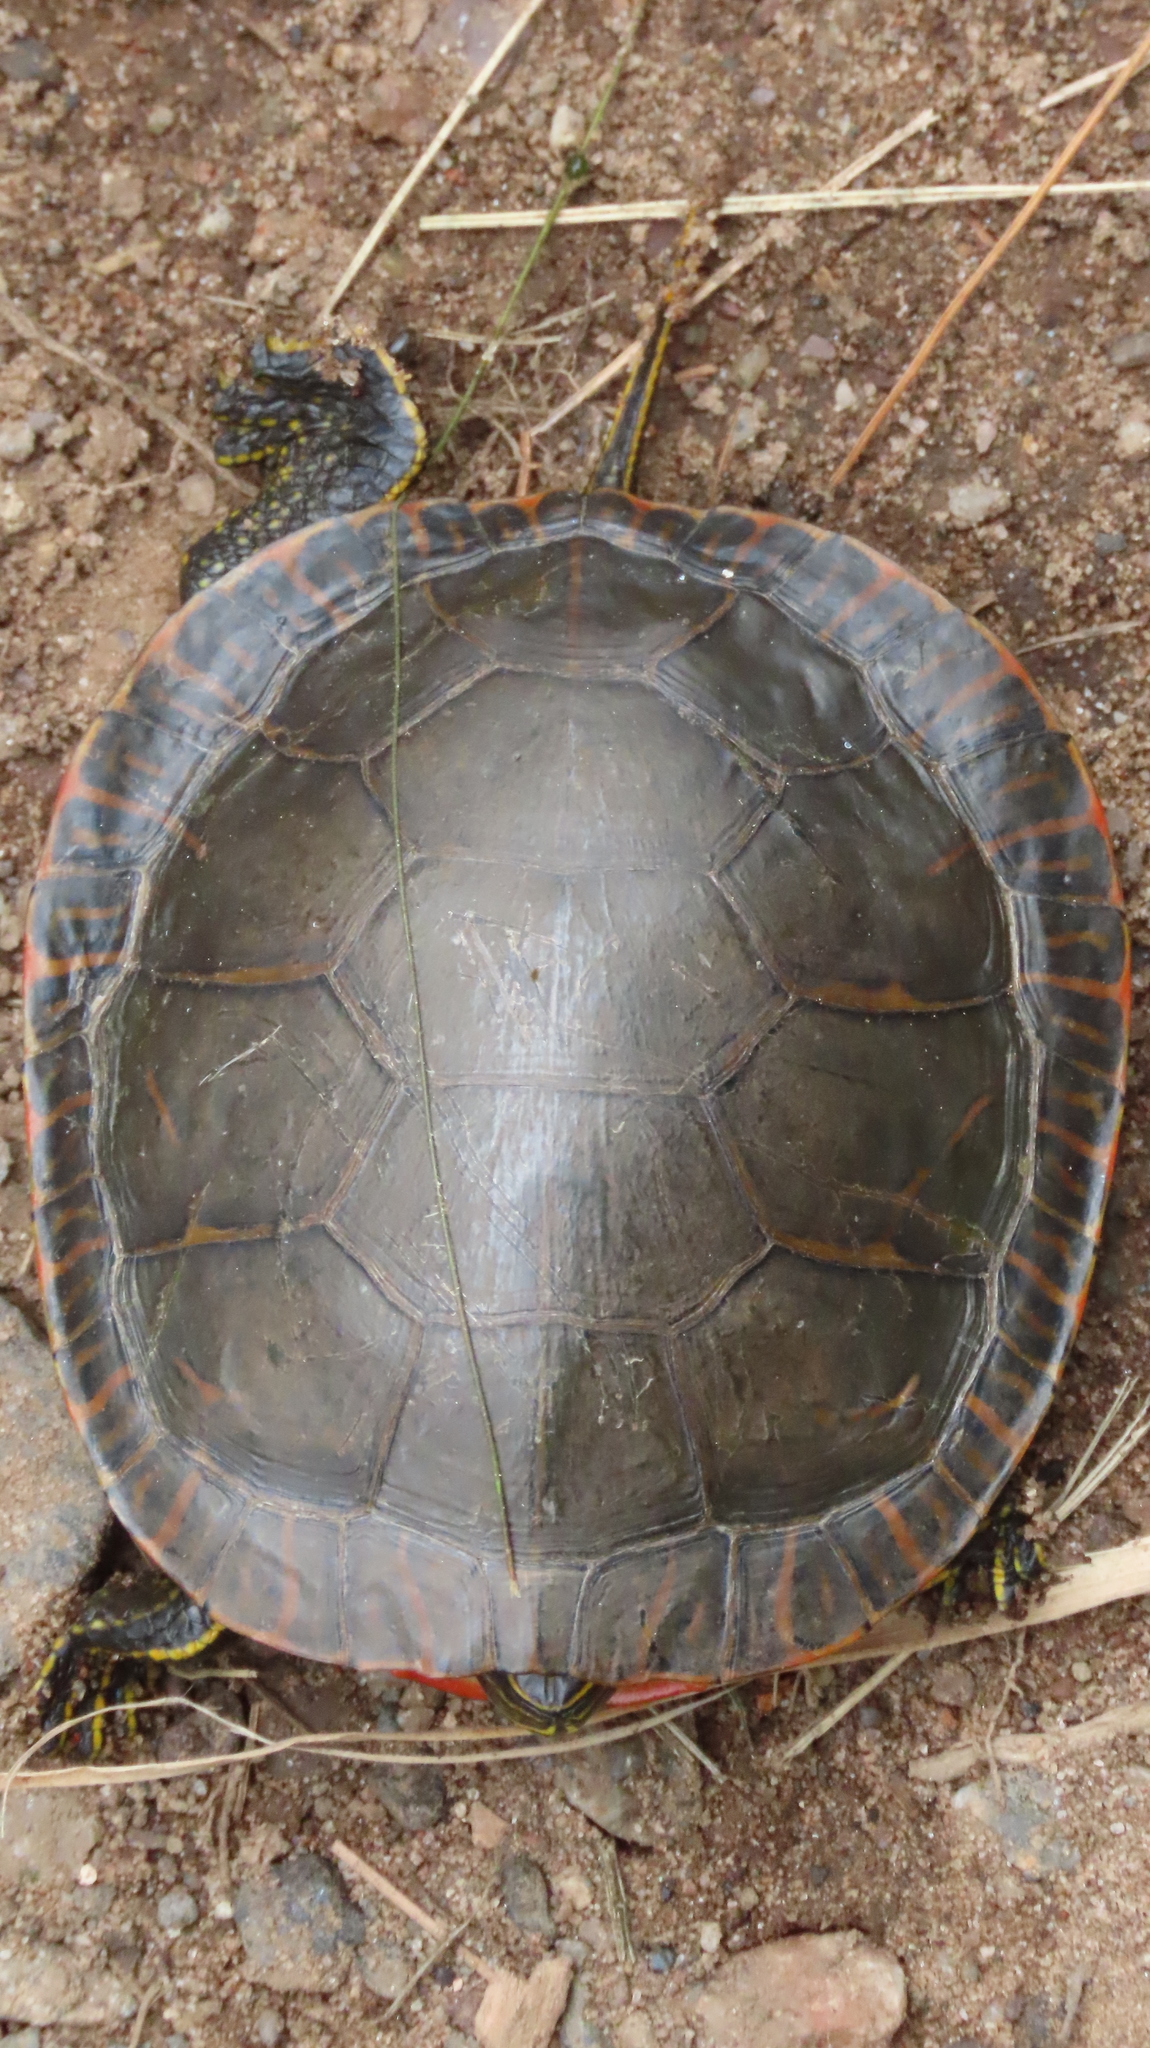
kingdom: Animalia
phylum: Chordata
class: Testudines
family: Emydidae
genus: Chrysemys
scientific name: Chrysemys picta
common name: Painted turtle
